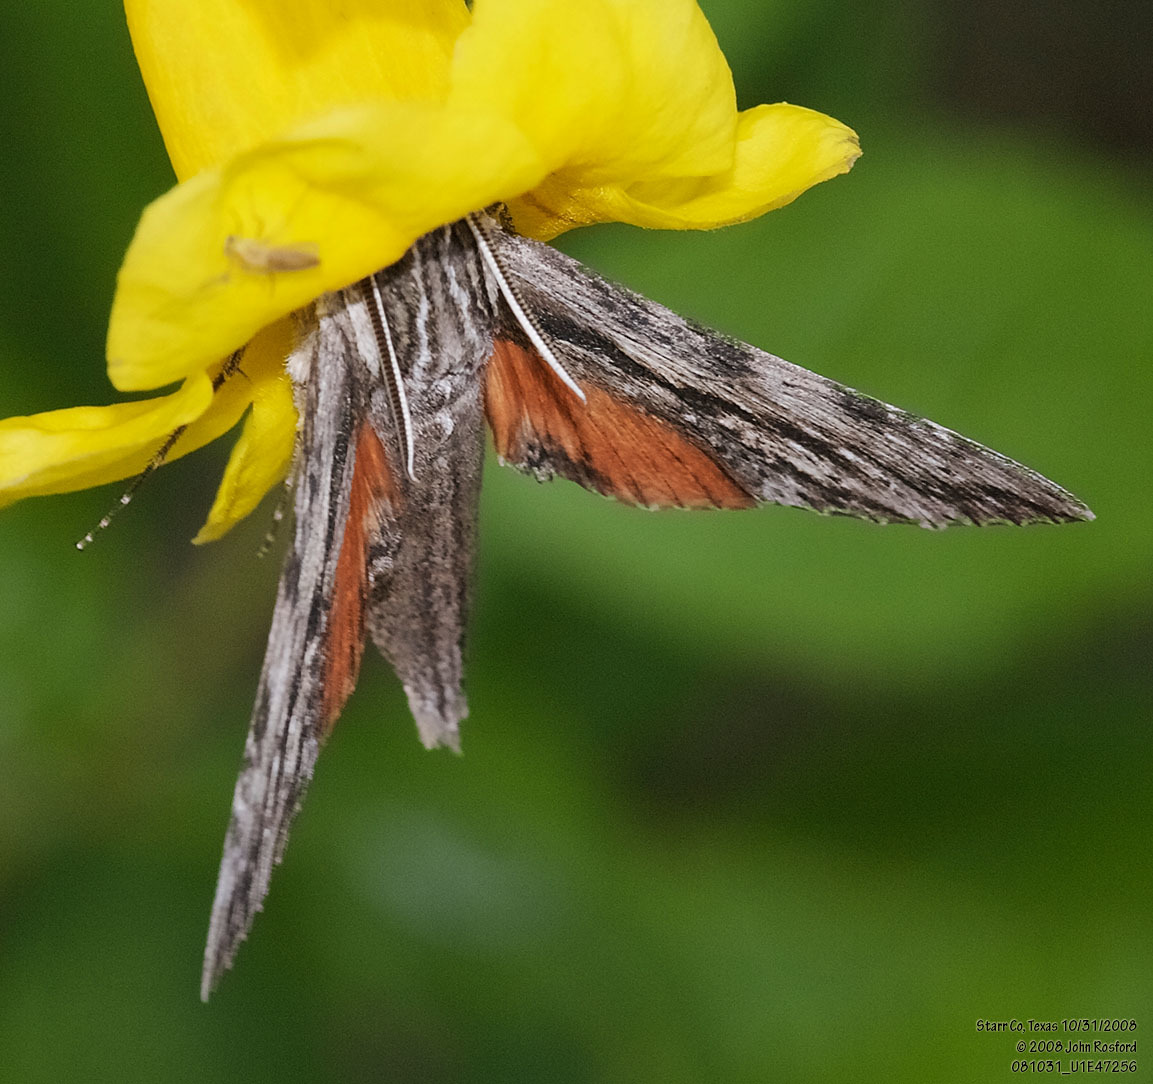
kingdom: Animalia
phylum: Arthropoda
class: Insecta
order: Lepidoptera
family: Sphingidae
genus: Erinnyis
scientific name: Erinnyis obscura
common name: Obscure sphinx
